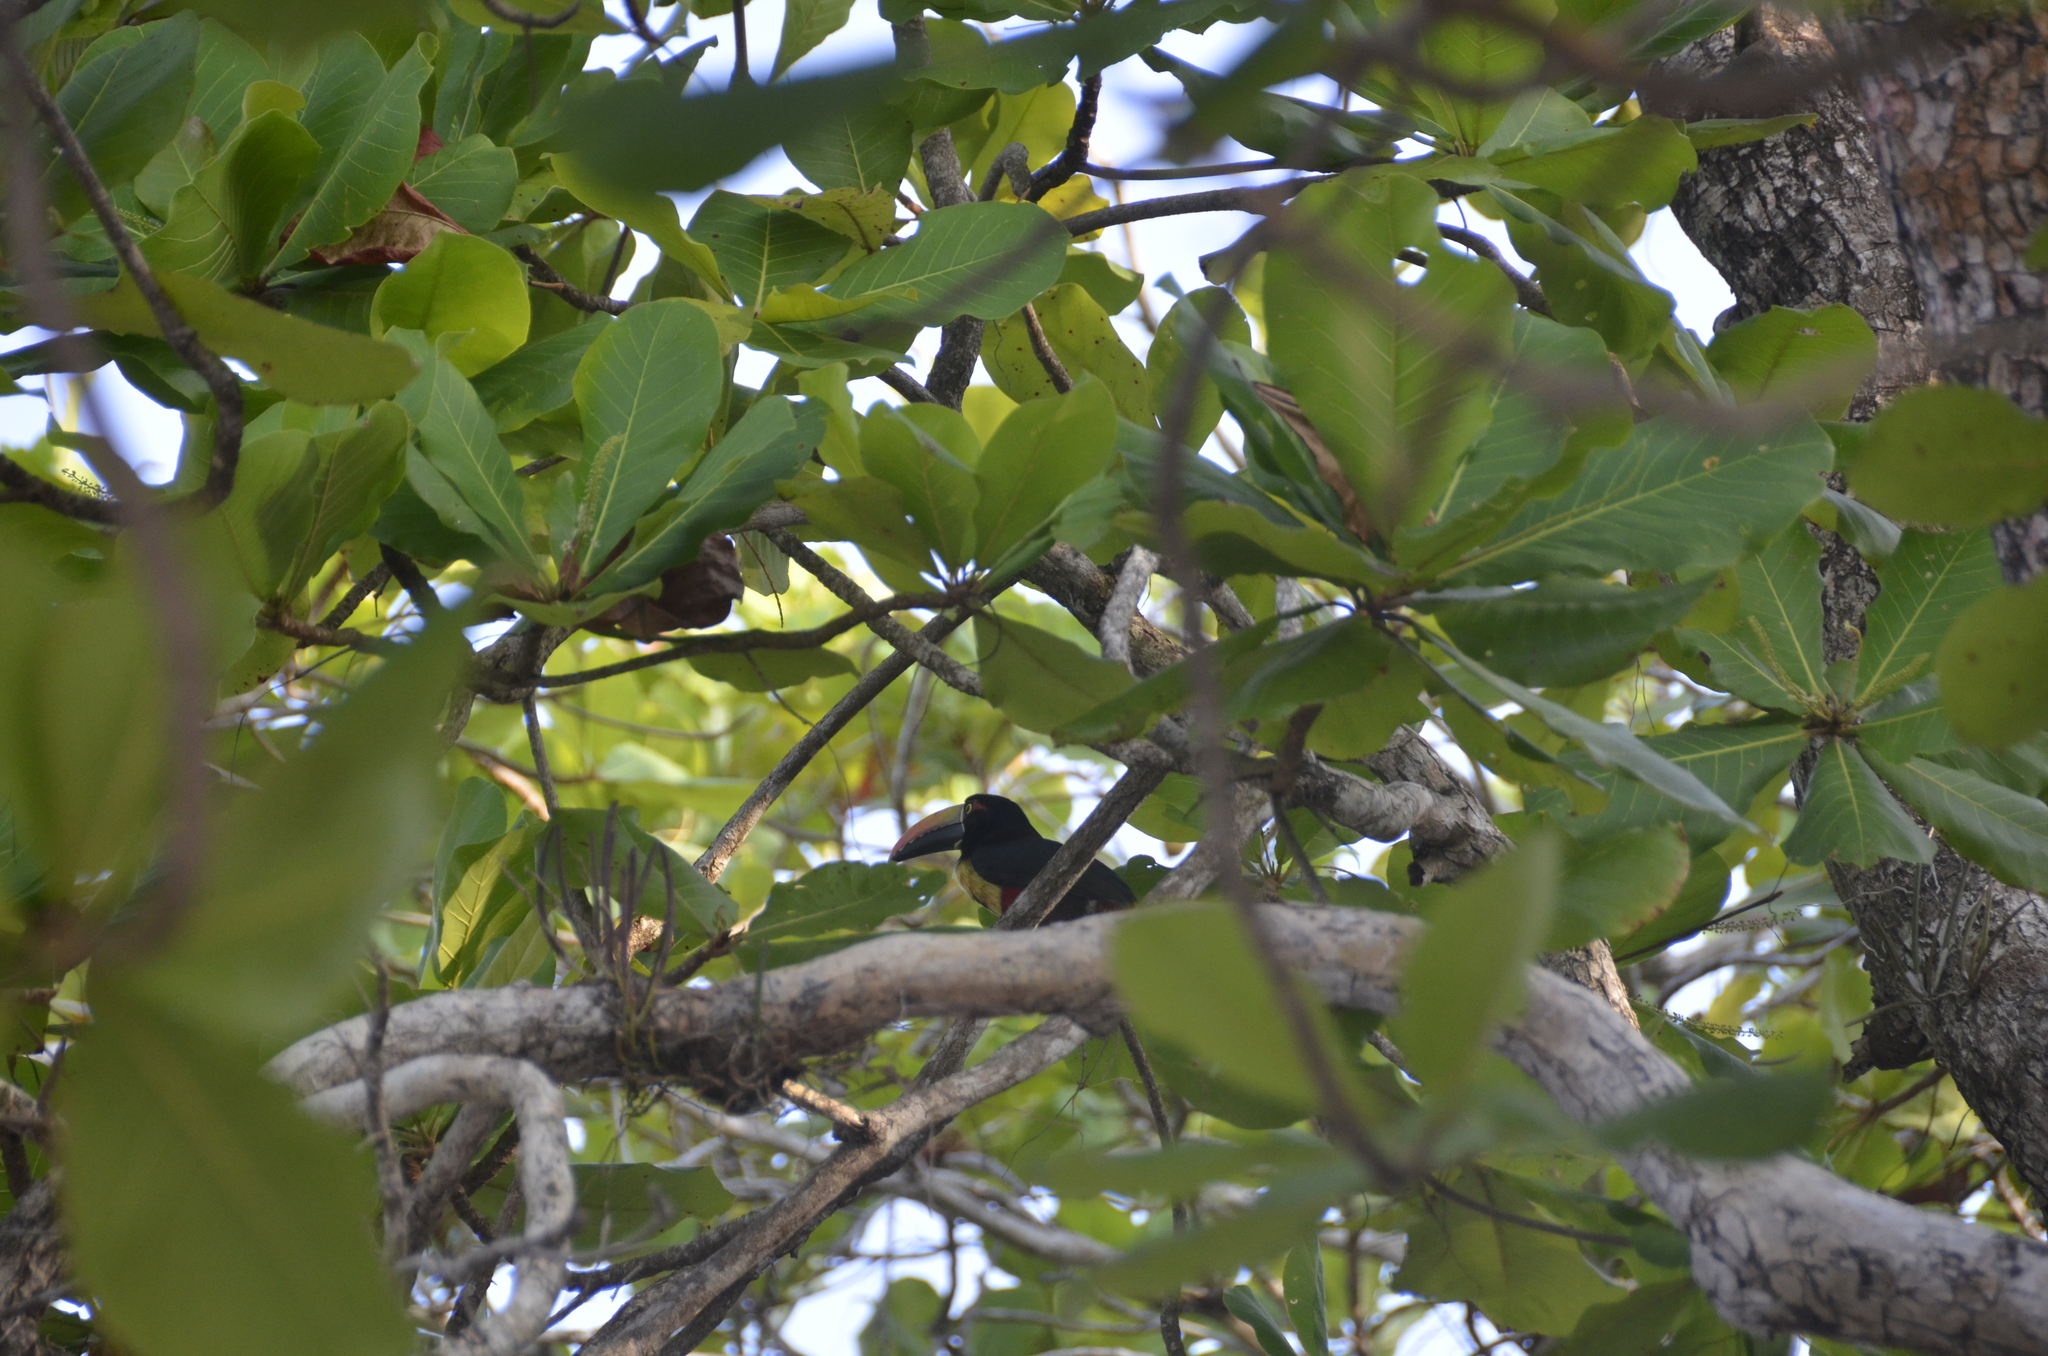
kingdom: Animalia
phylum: Chordata
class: Aves
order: Piciformes
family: Ramphastidae
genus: Pteroglossus
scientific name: Pteroglossus frantzii
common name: Fiery-billed aracari
